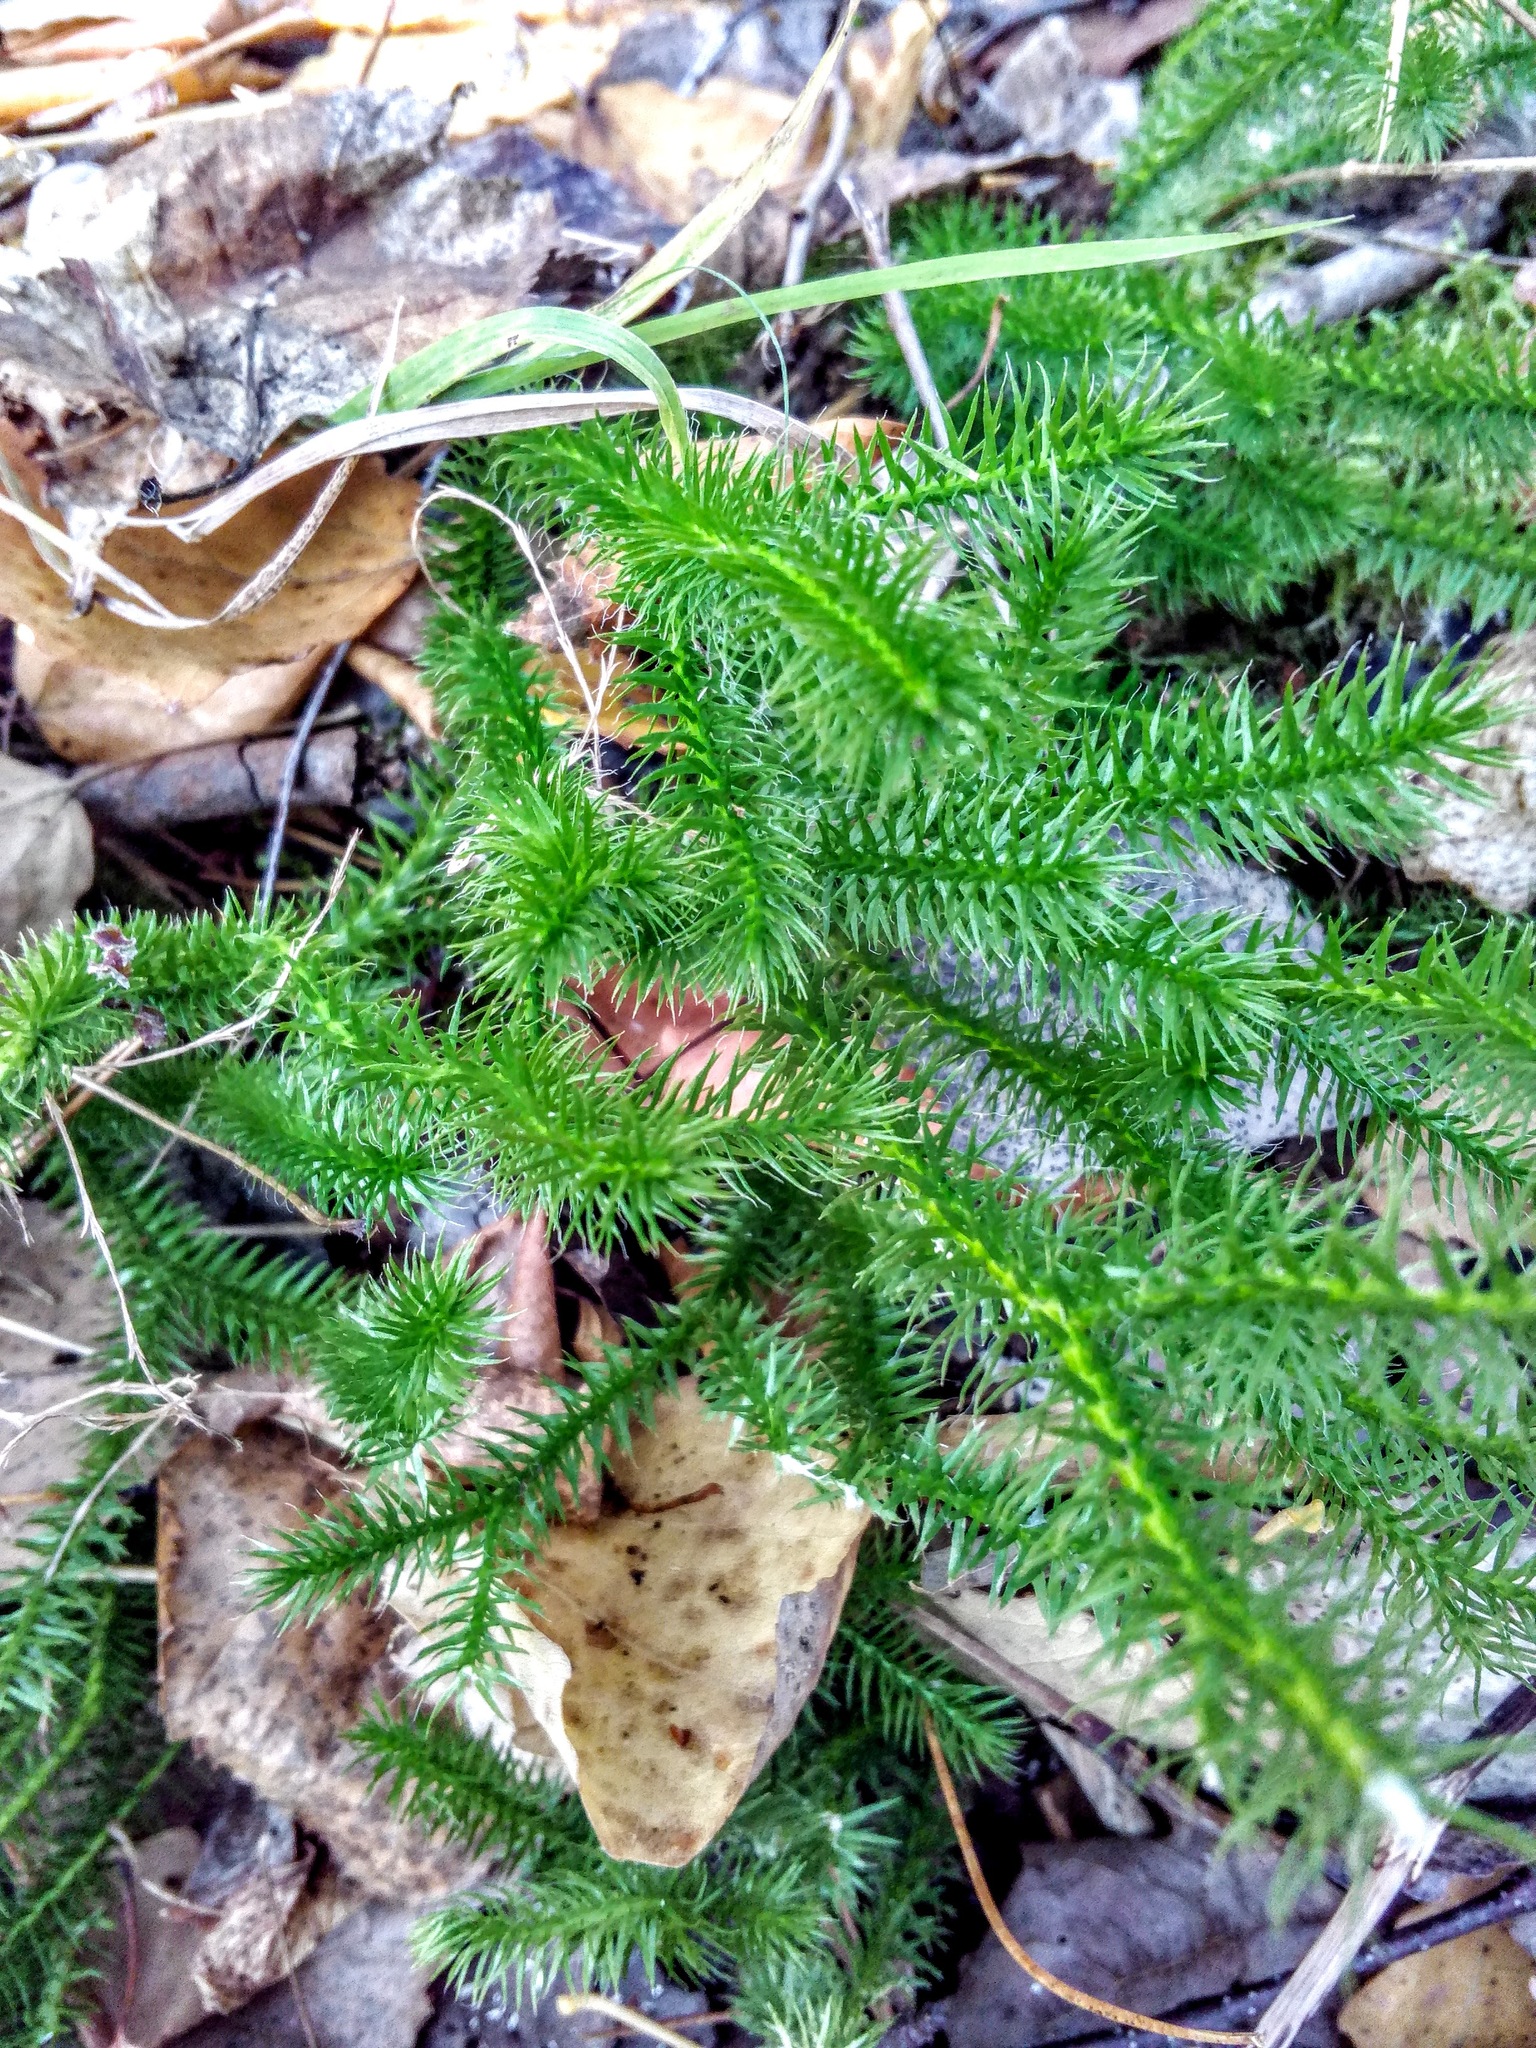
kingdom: Plantae
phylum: Tracheophyta
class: Lycopodiopsida
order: Lycopodiales
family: Lycopodiaceae
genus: Lycopodium
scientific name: Lycopodium clavatum
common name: Stag's-horn clubmoss
